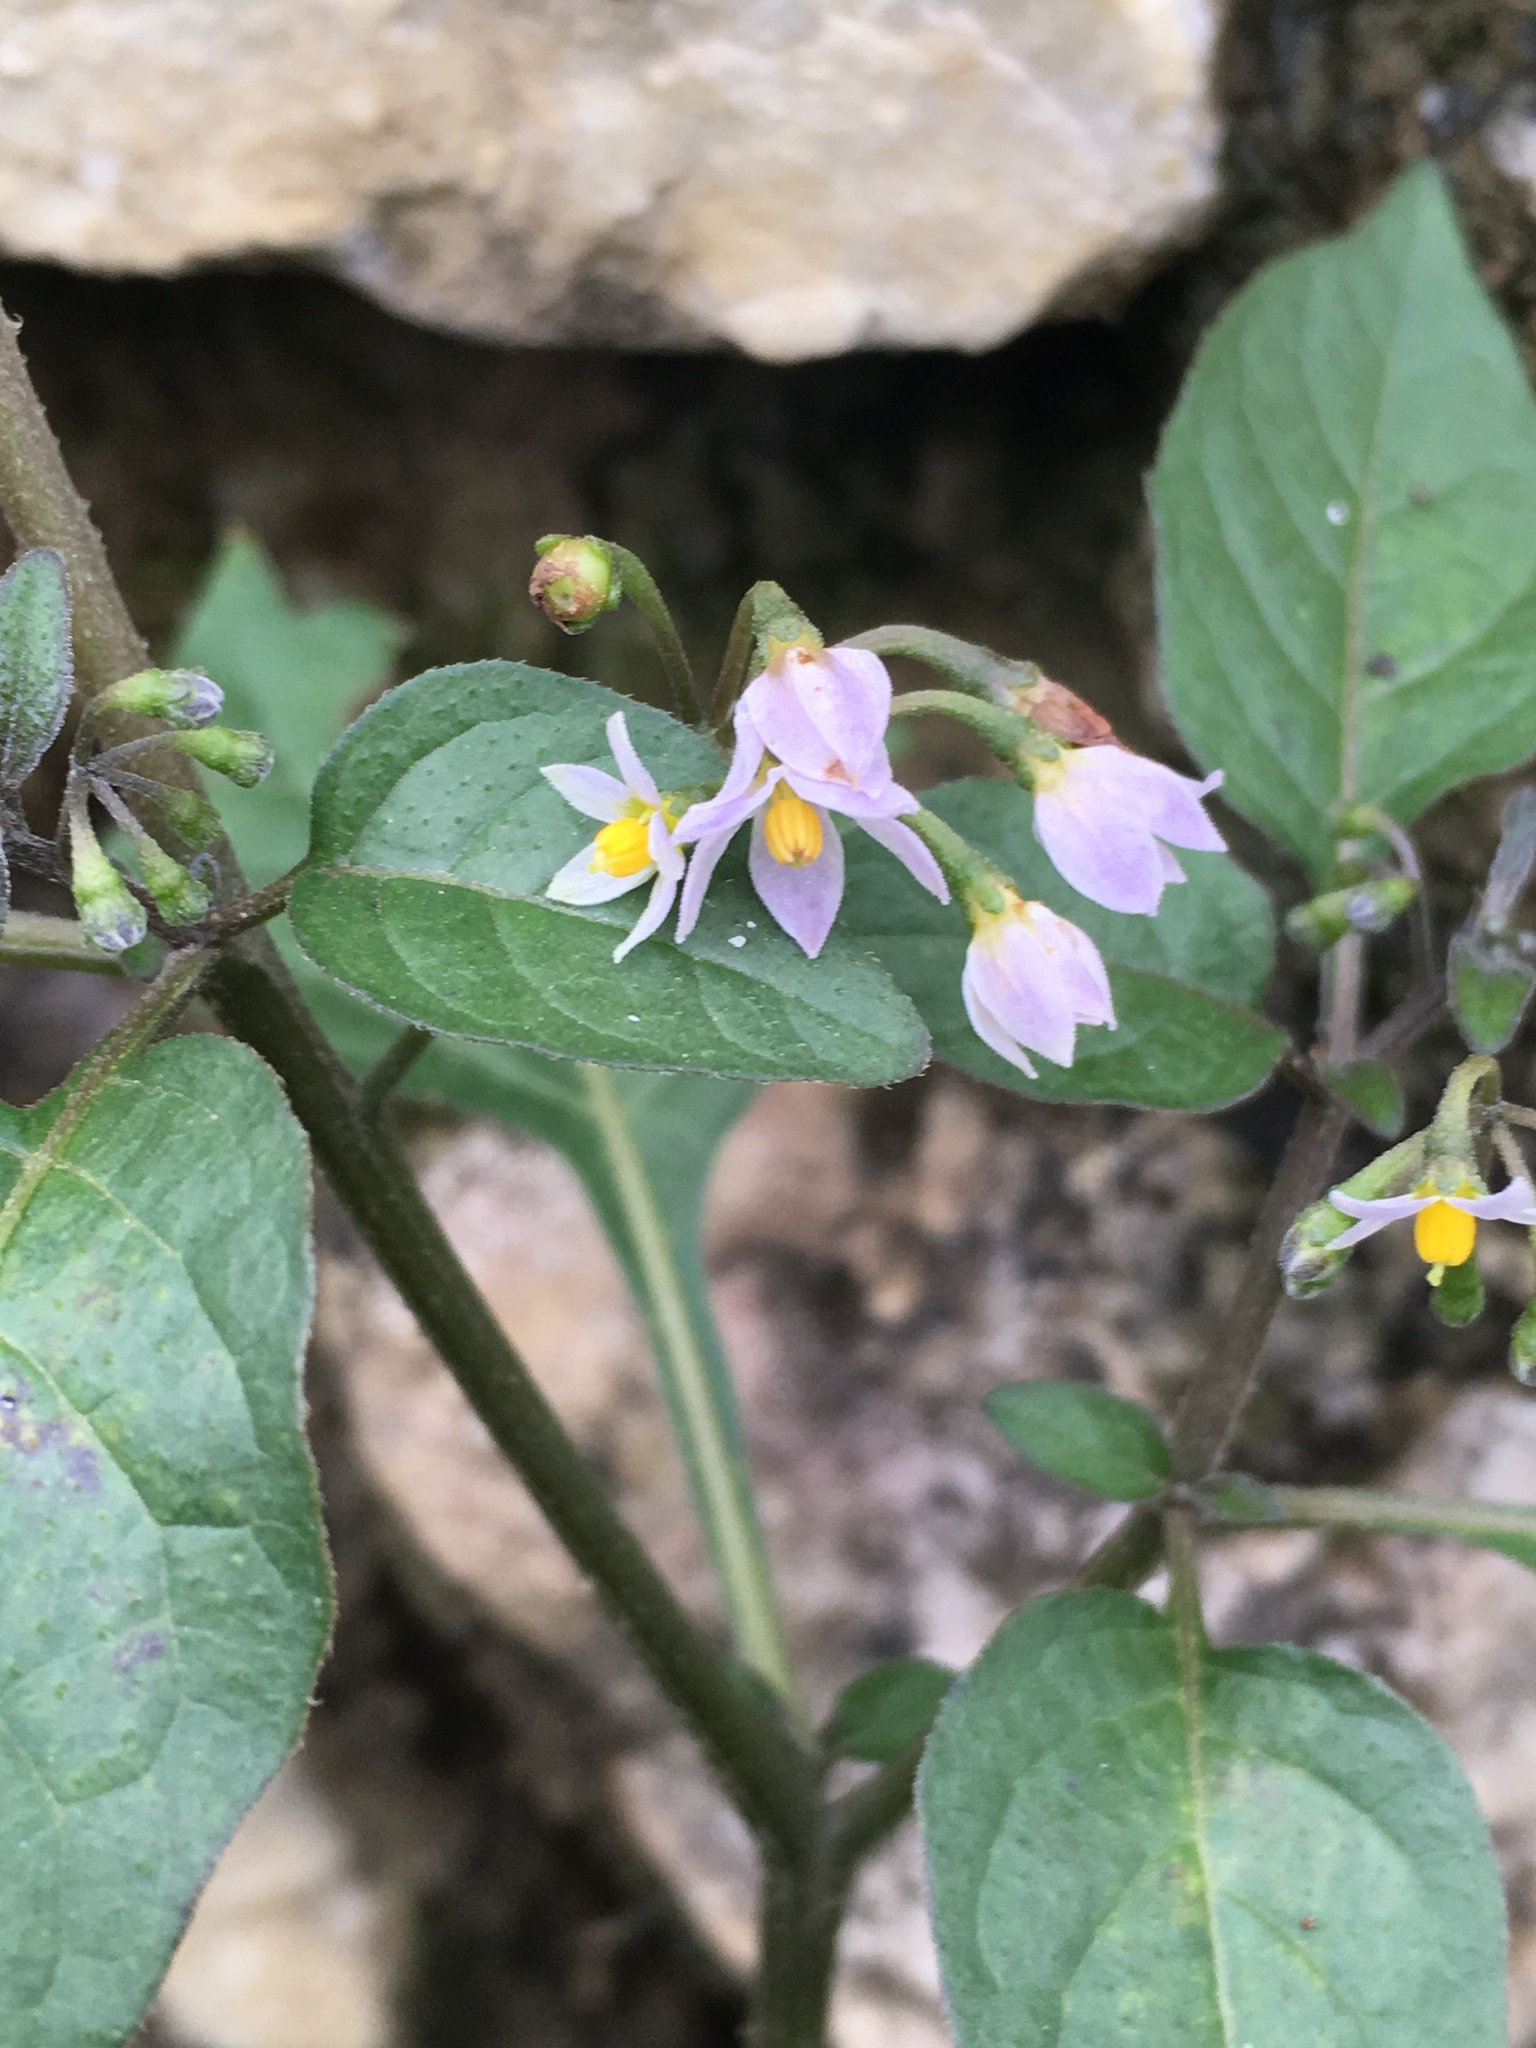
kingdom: Plantae
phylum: Tracheophyta
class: Magnoliopsida
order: Solanales
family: Solanaceae
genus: Solanum
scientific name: Solanum nigrum
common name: Black nightshade
